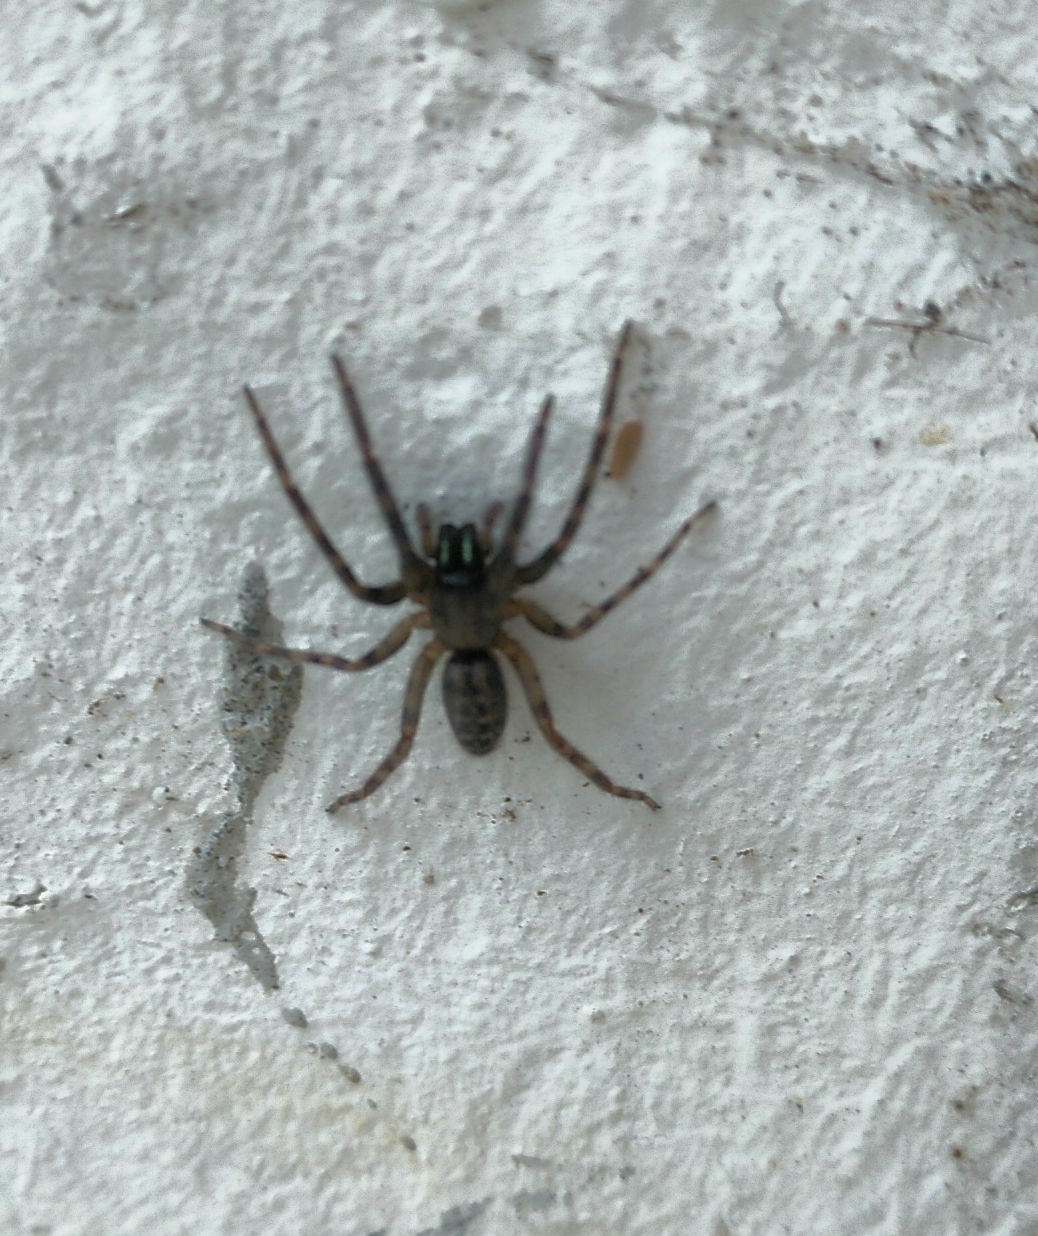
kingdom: Animalia
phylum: Arthropoda
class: Arachnida
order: Araneae
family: Segestriidae
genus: Segestria
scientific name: Segestria florentina
